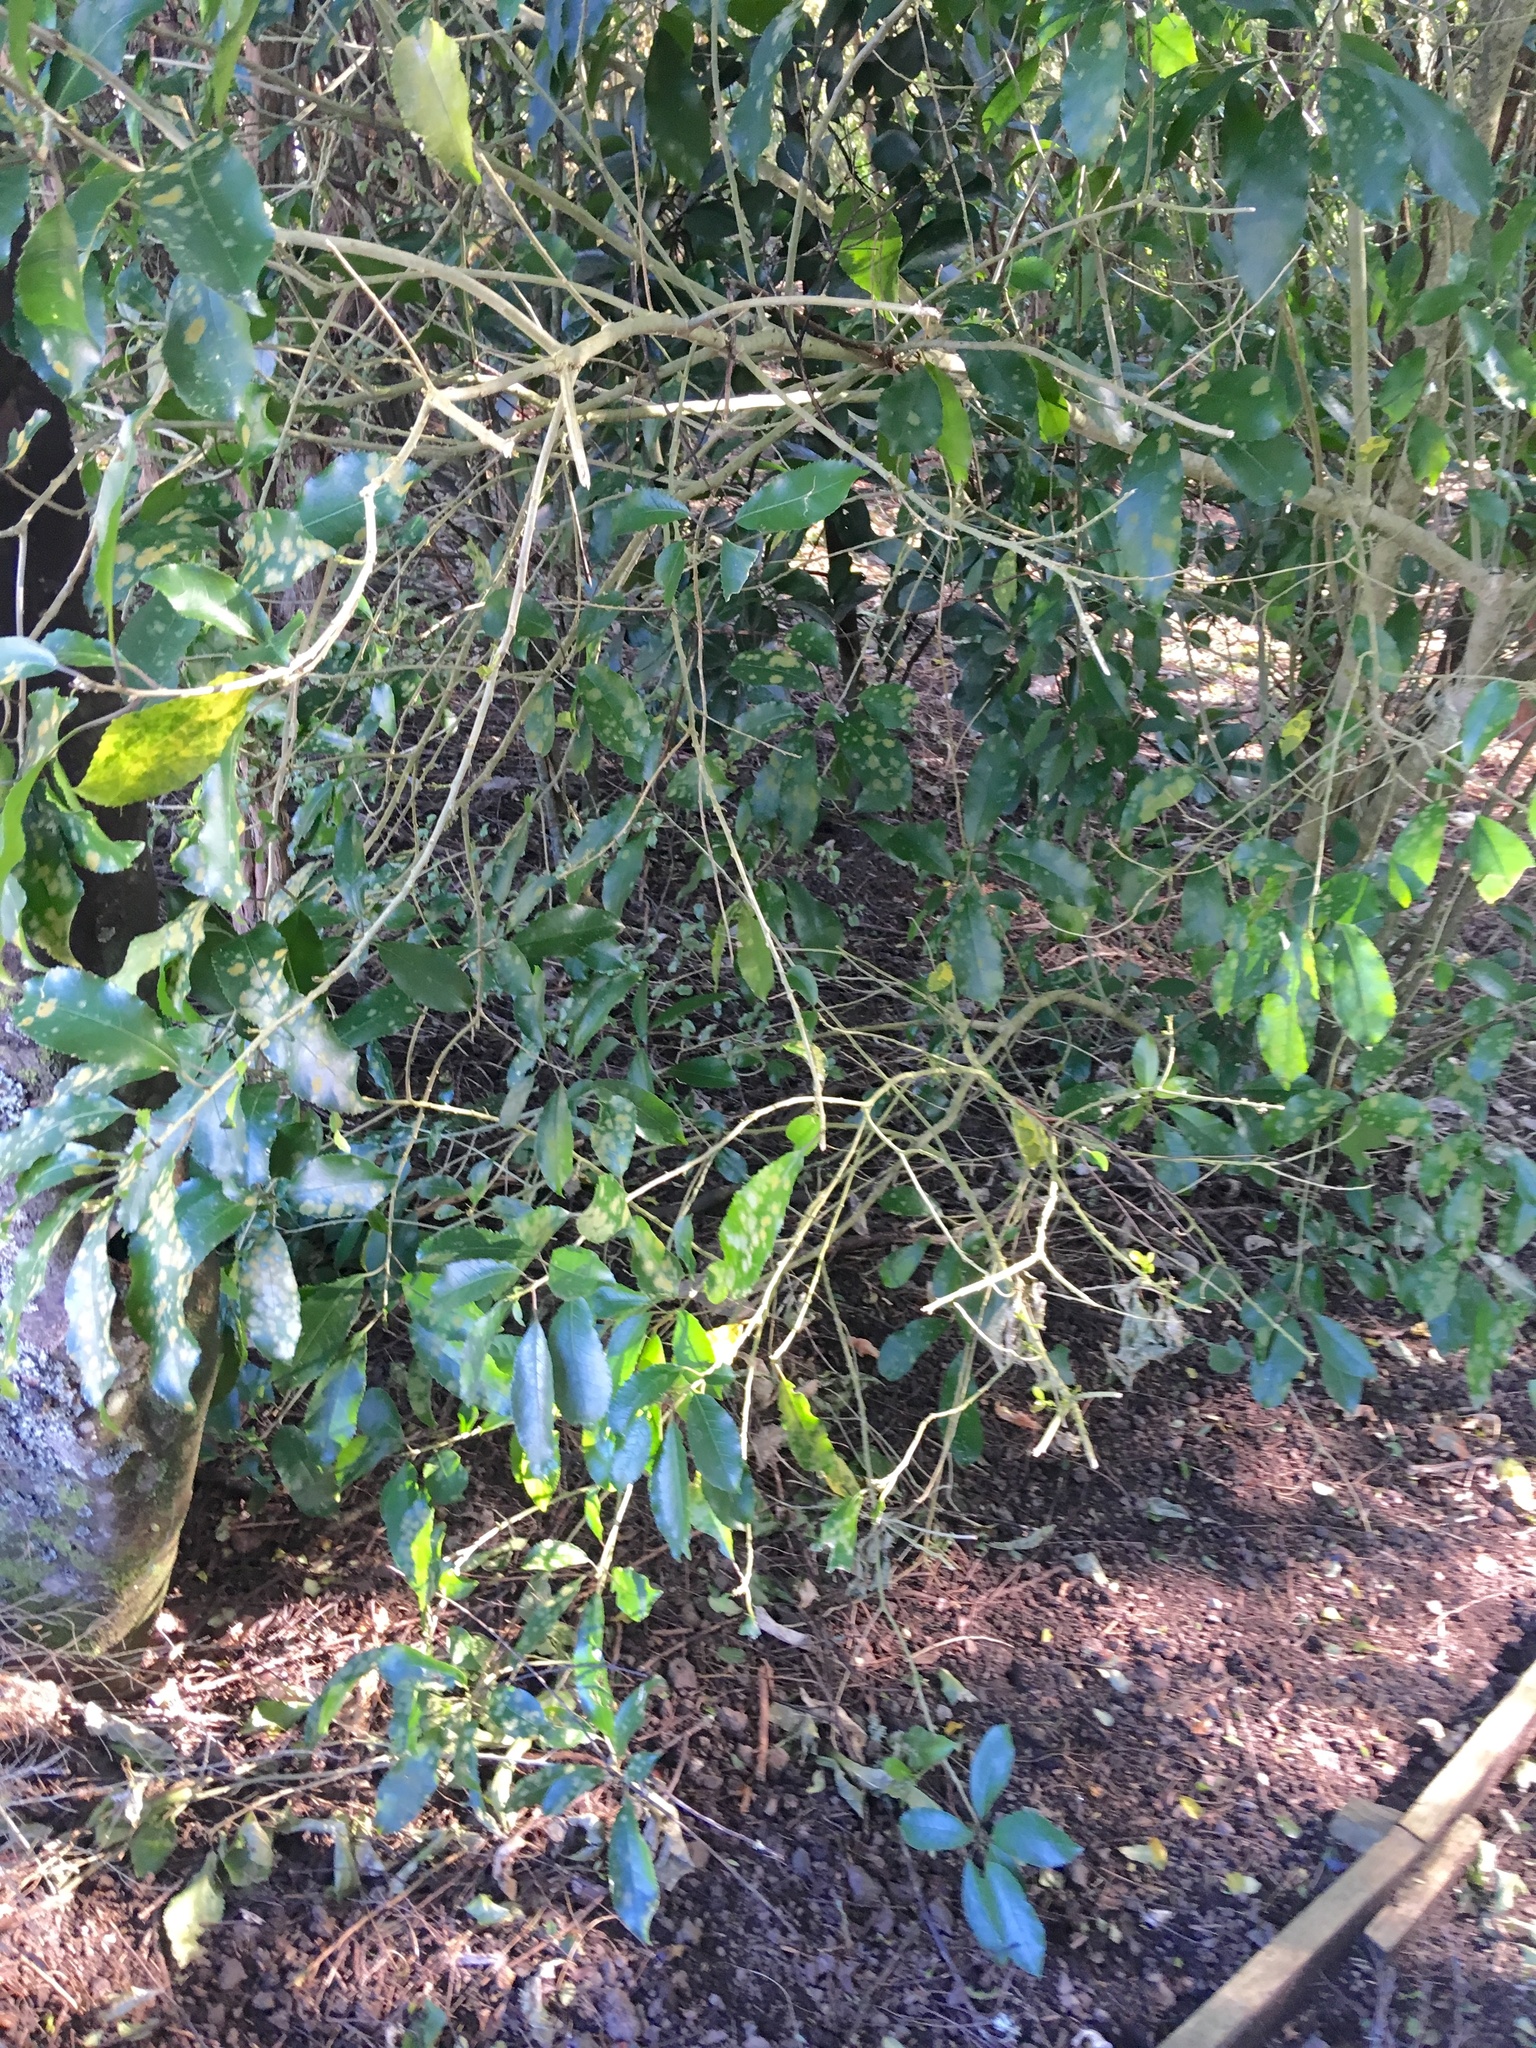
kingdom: Plantae
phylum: Tracheophyta
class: Magnoliopsida
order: Malpighiales
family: Violaceae
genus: Melicytus
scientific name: Melicytus ramiflorus
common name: Mahoe
